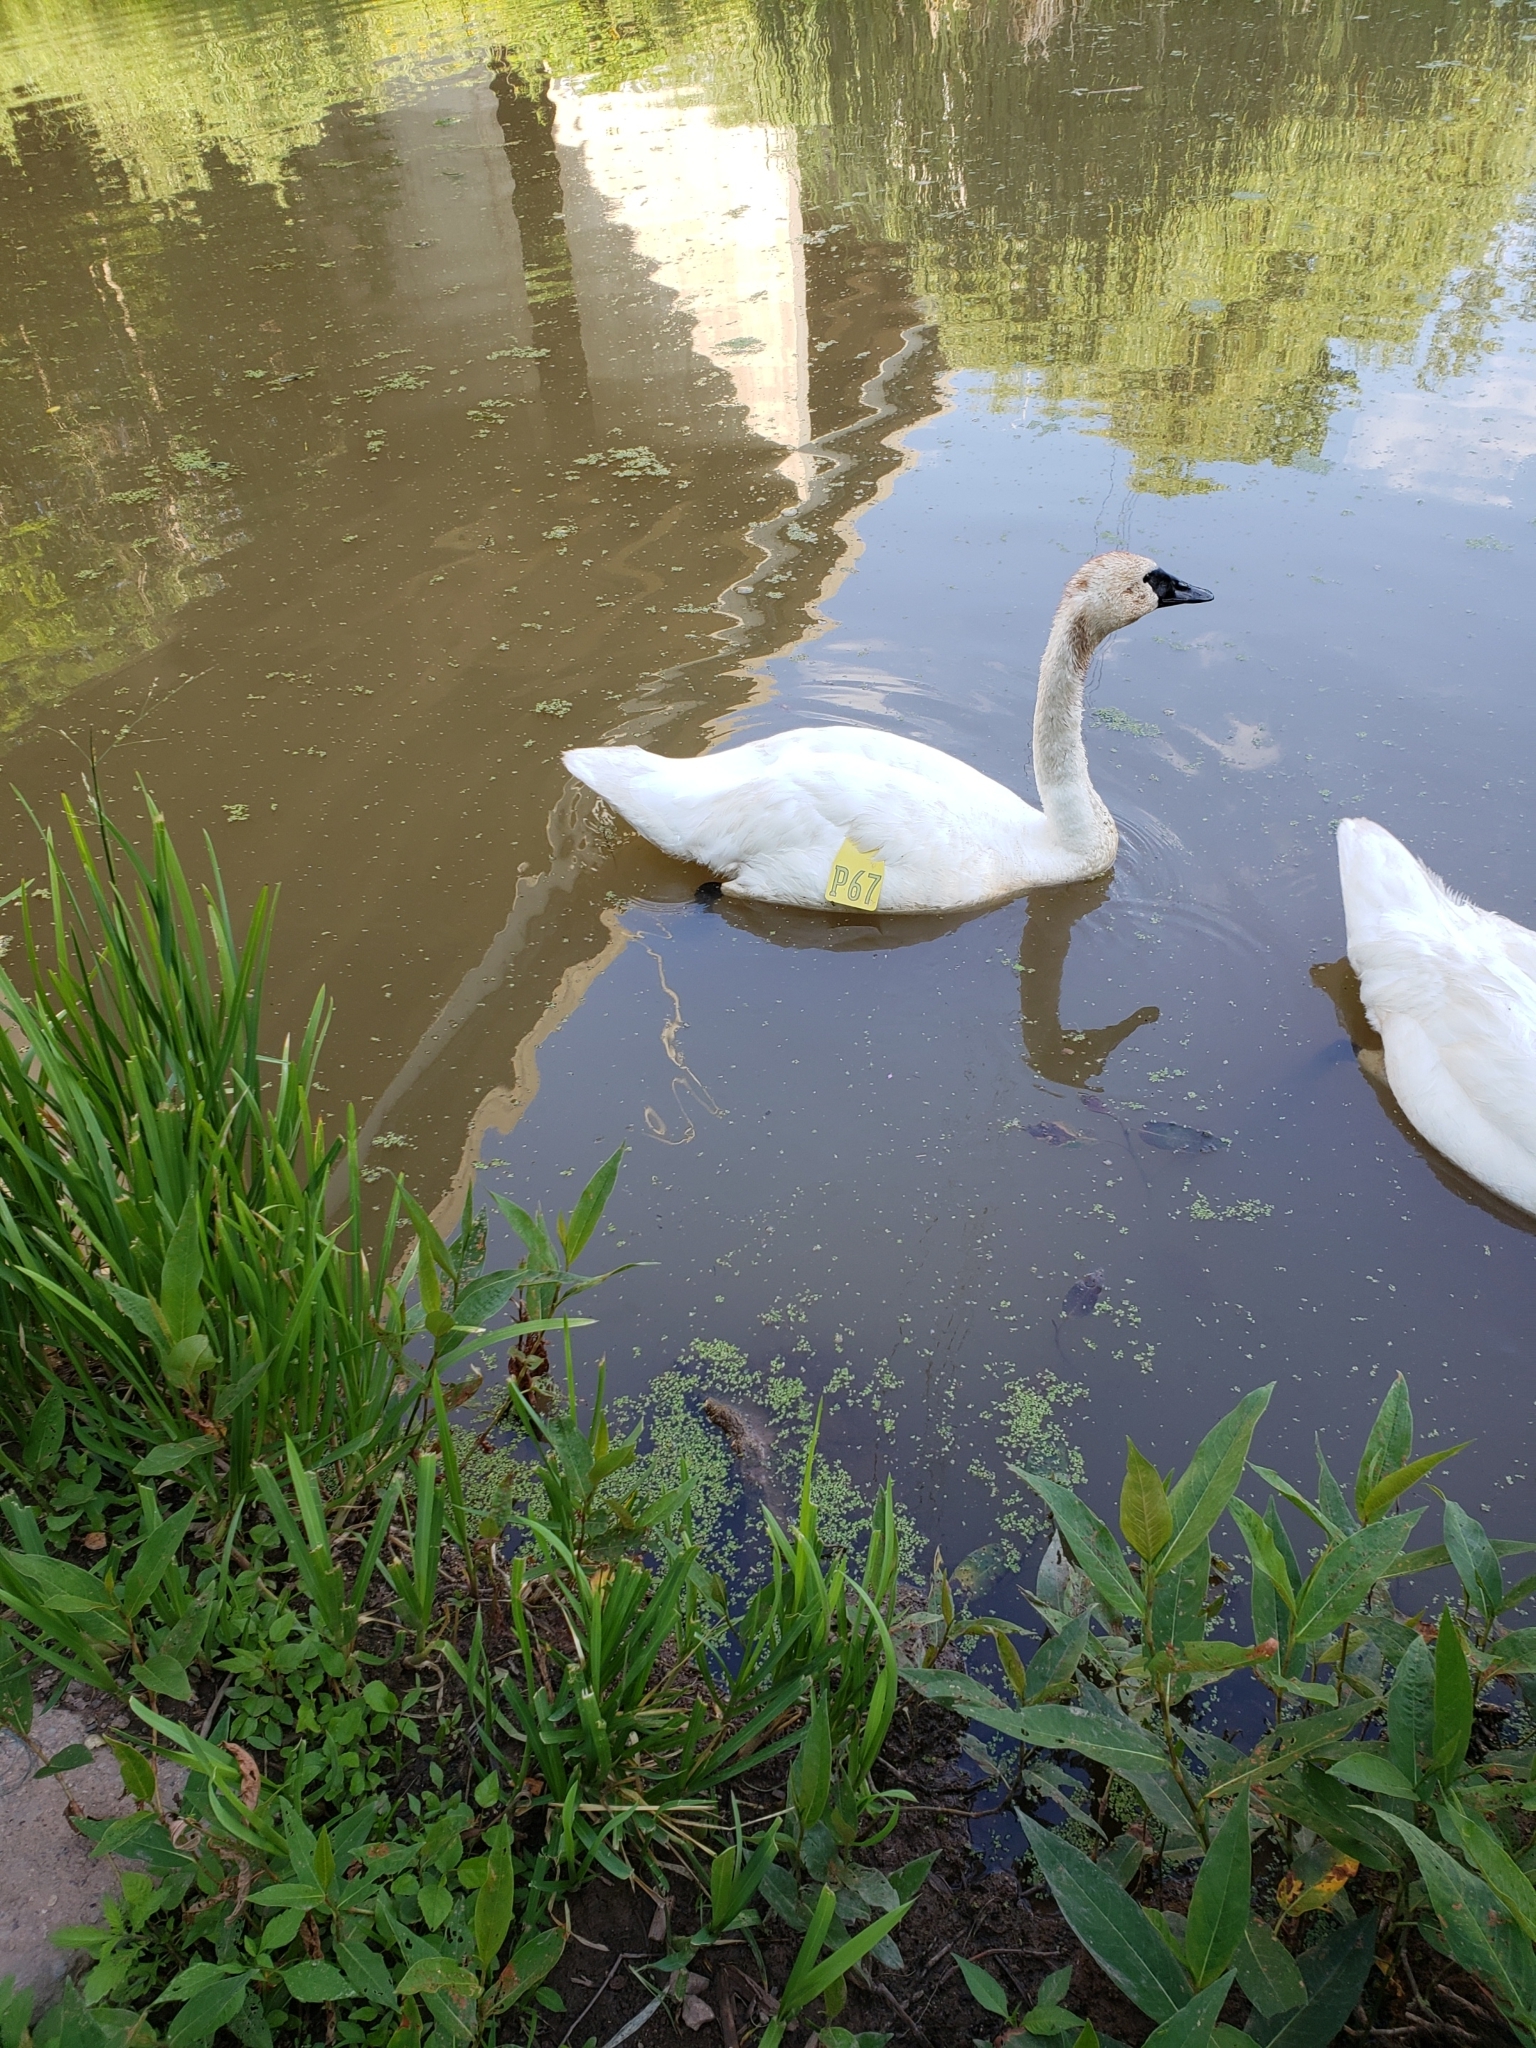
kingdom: Animalia
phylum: Chordata
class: Aves
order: Anseriformes
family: Anatidae
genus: Cygnus
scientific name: Cygnus buccinator
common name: Trumpeter swan
